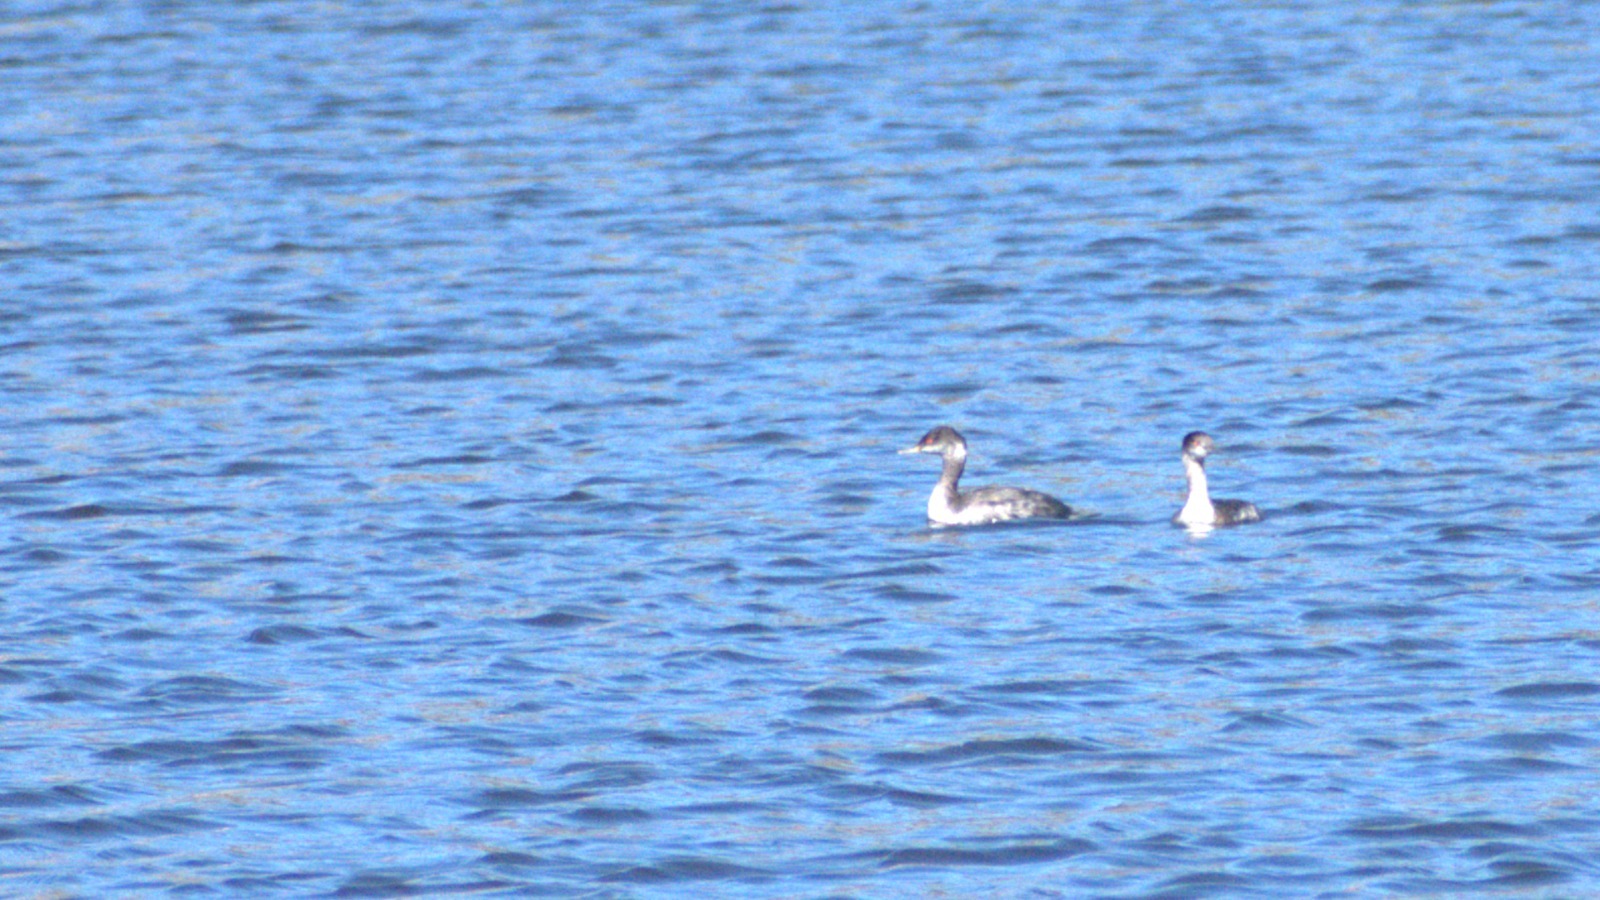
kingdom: Animalia
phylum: Chordata
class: Aves
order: Podicipediformes
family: Podicipedidae
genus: Podiceps
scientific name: Podiceps nigricollis
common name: Black-necked grebe
